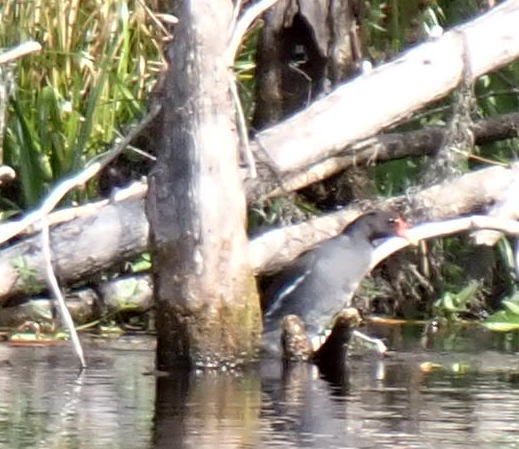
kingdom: Animalia
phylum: Chordata
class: Aves
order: Gruiformes
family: Rallidae
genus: Gallinula
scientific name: Gallinula chloropus
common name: Common moorhen
